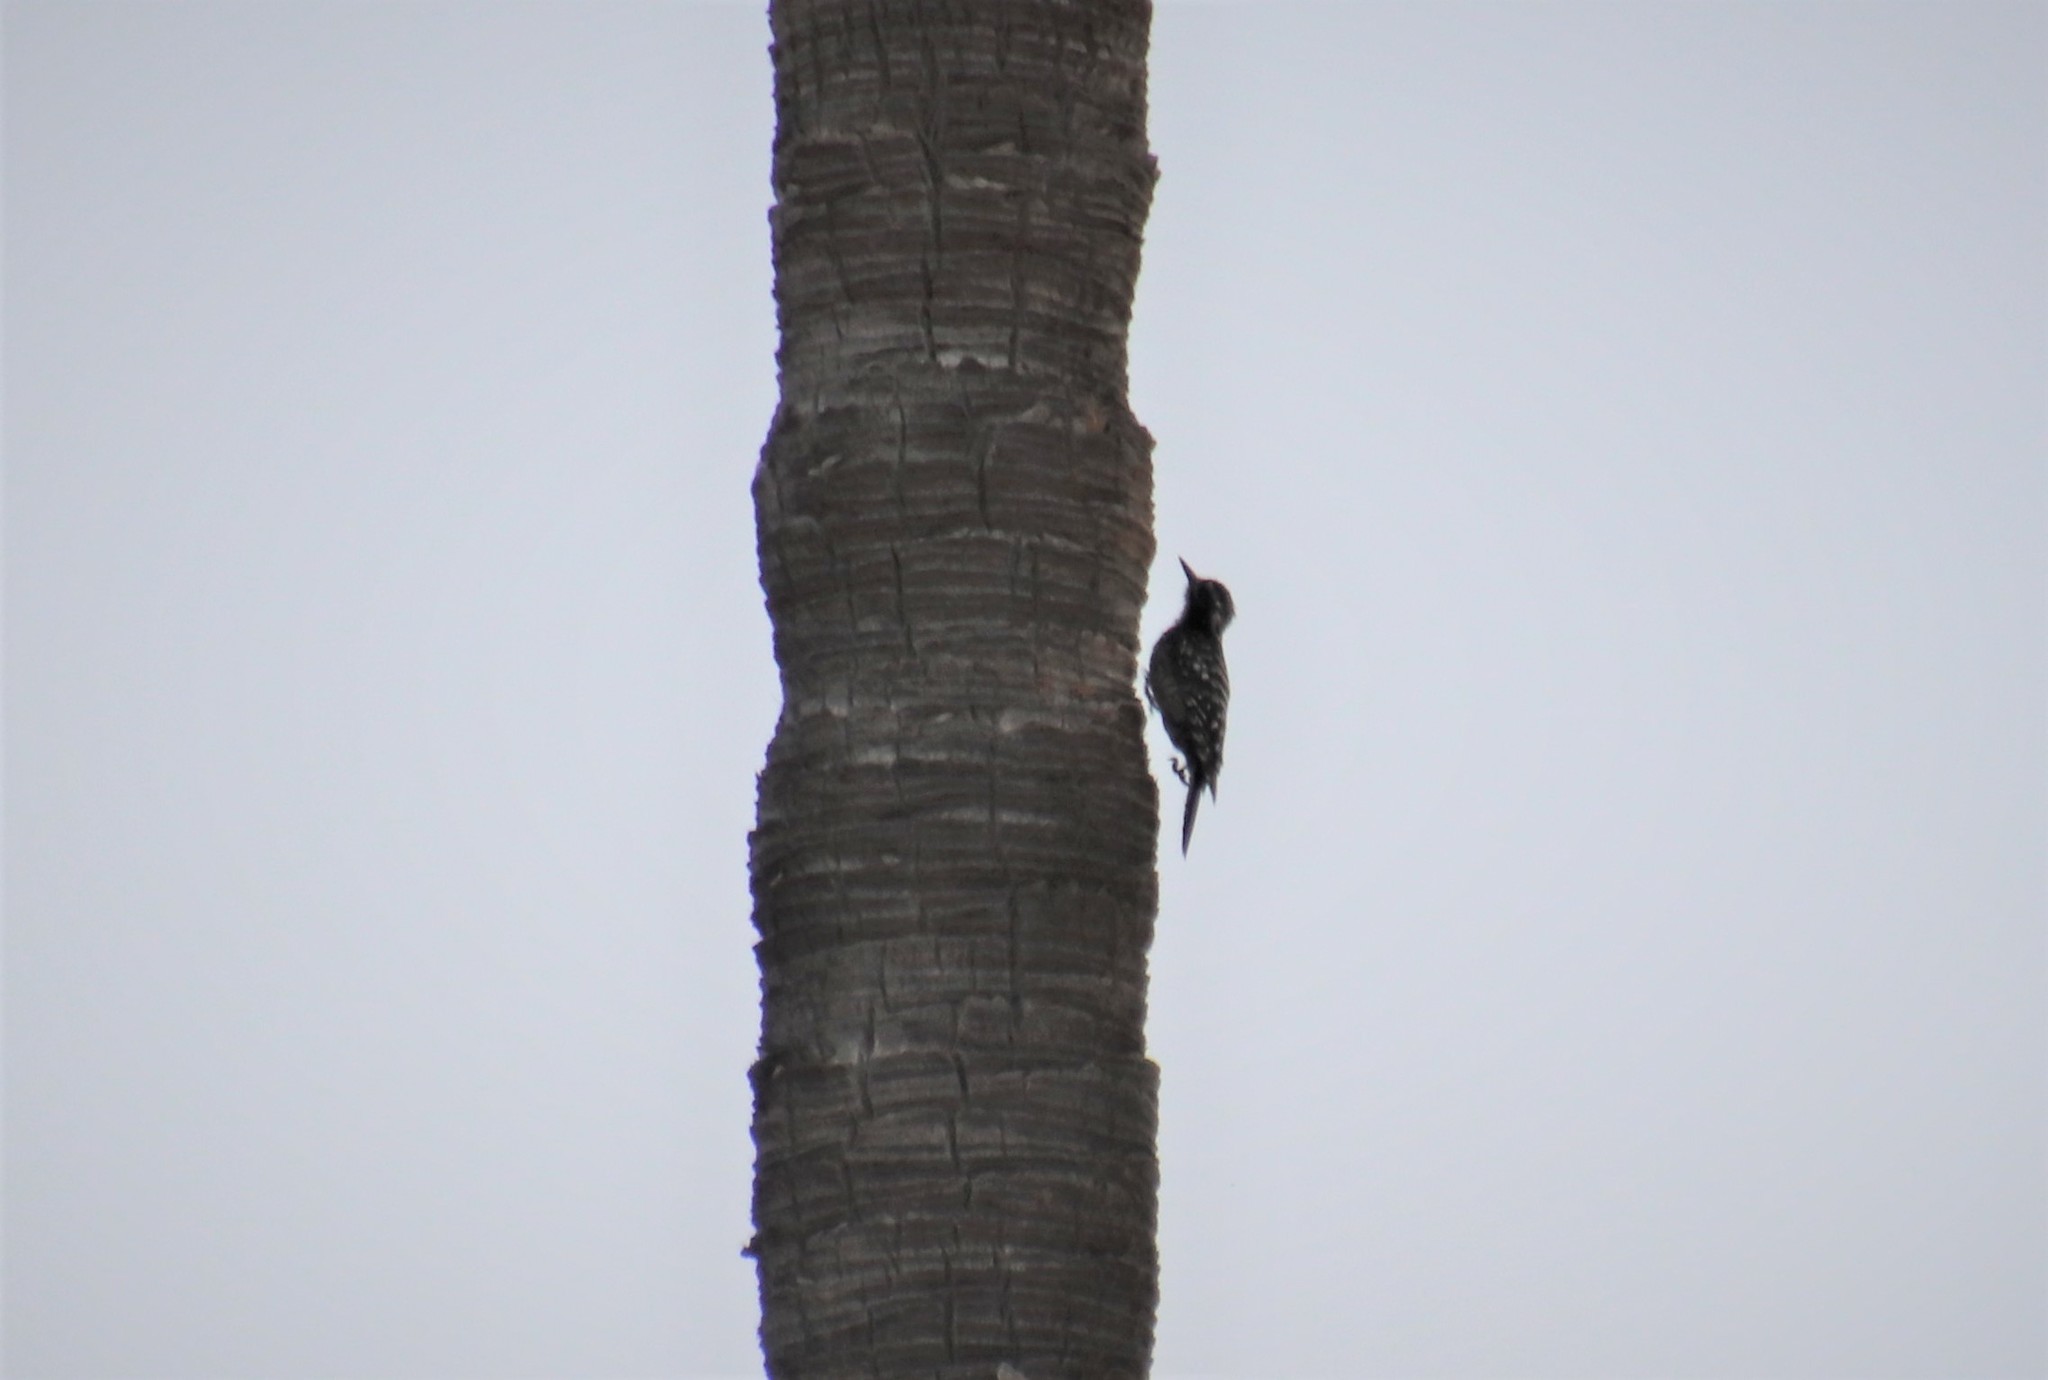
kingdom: Animalia
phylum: Chordata
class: Aves
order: Piciformes
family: Picidae
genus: Dryobates
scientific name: Dryobates nuttallii
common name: Nuttall's woodpecker
